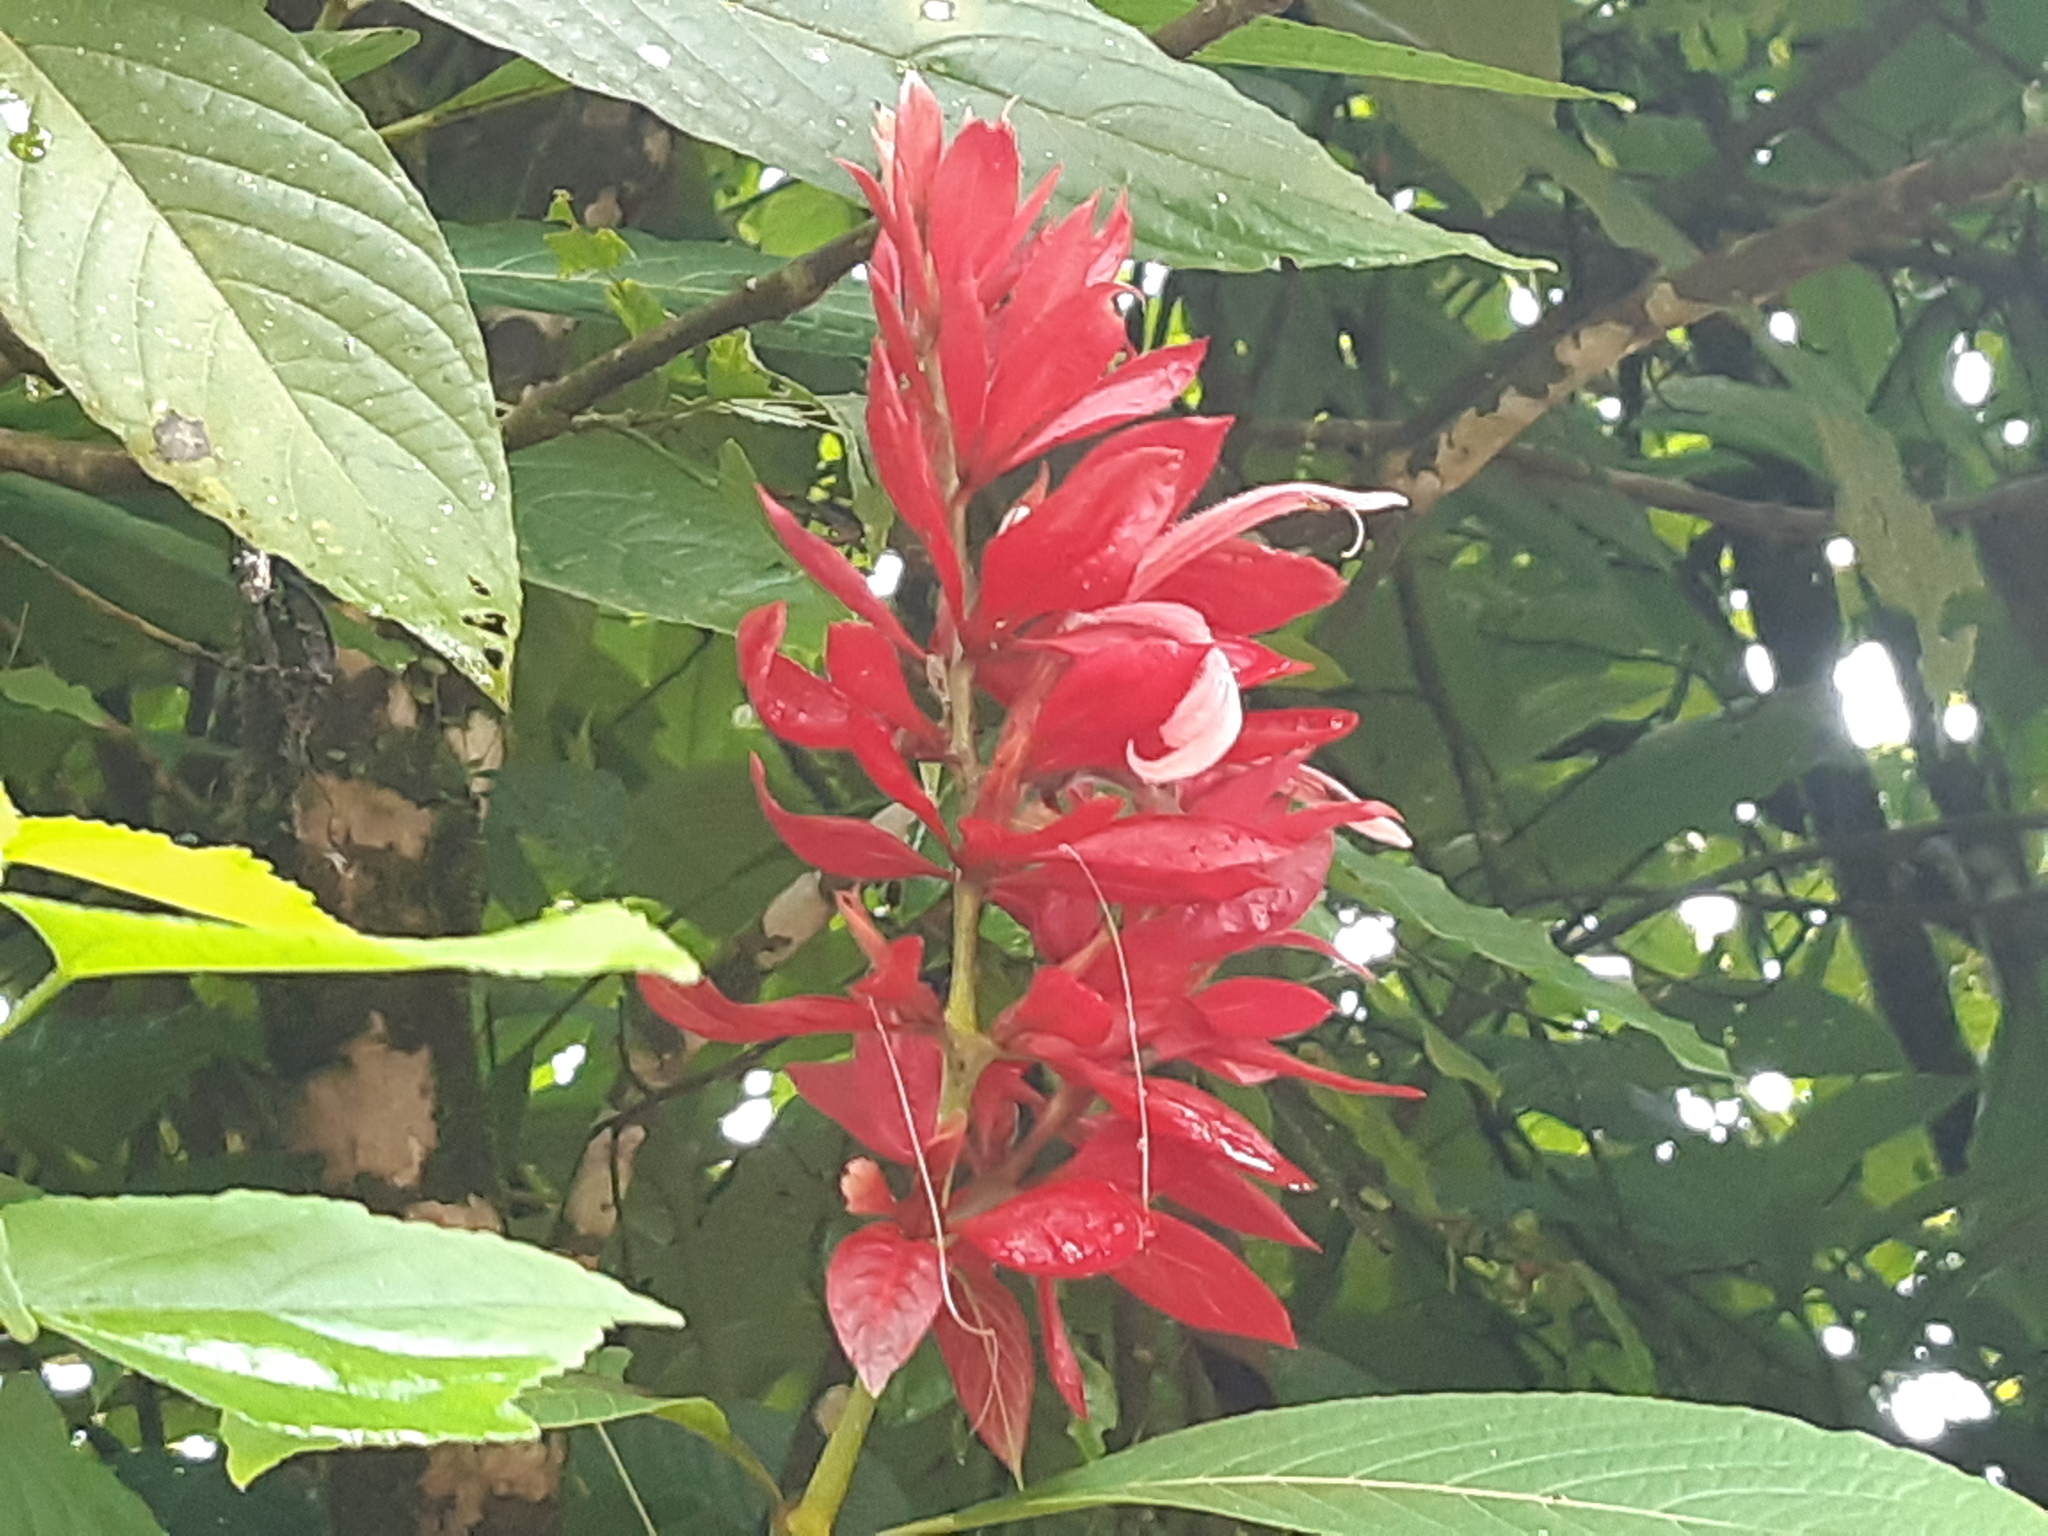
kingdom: Plantae
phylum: Tracheophyta
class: Magnoliopsida
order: Lamiales
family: Acanthaceae
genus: Megaskepasma
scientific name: Megaskepasma erythrochlamys
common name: Brazilian red-cloak
